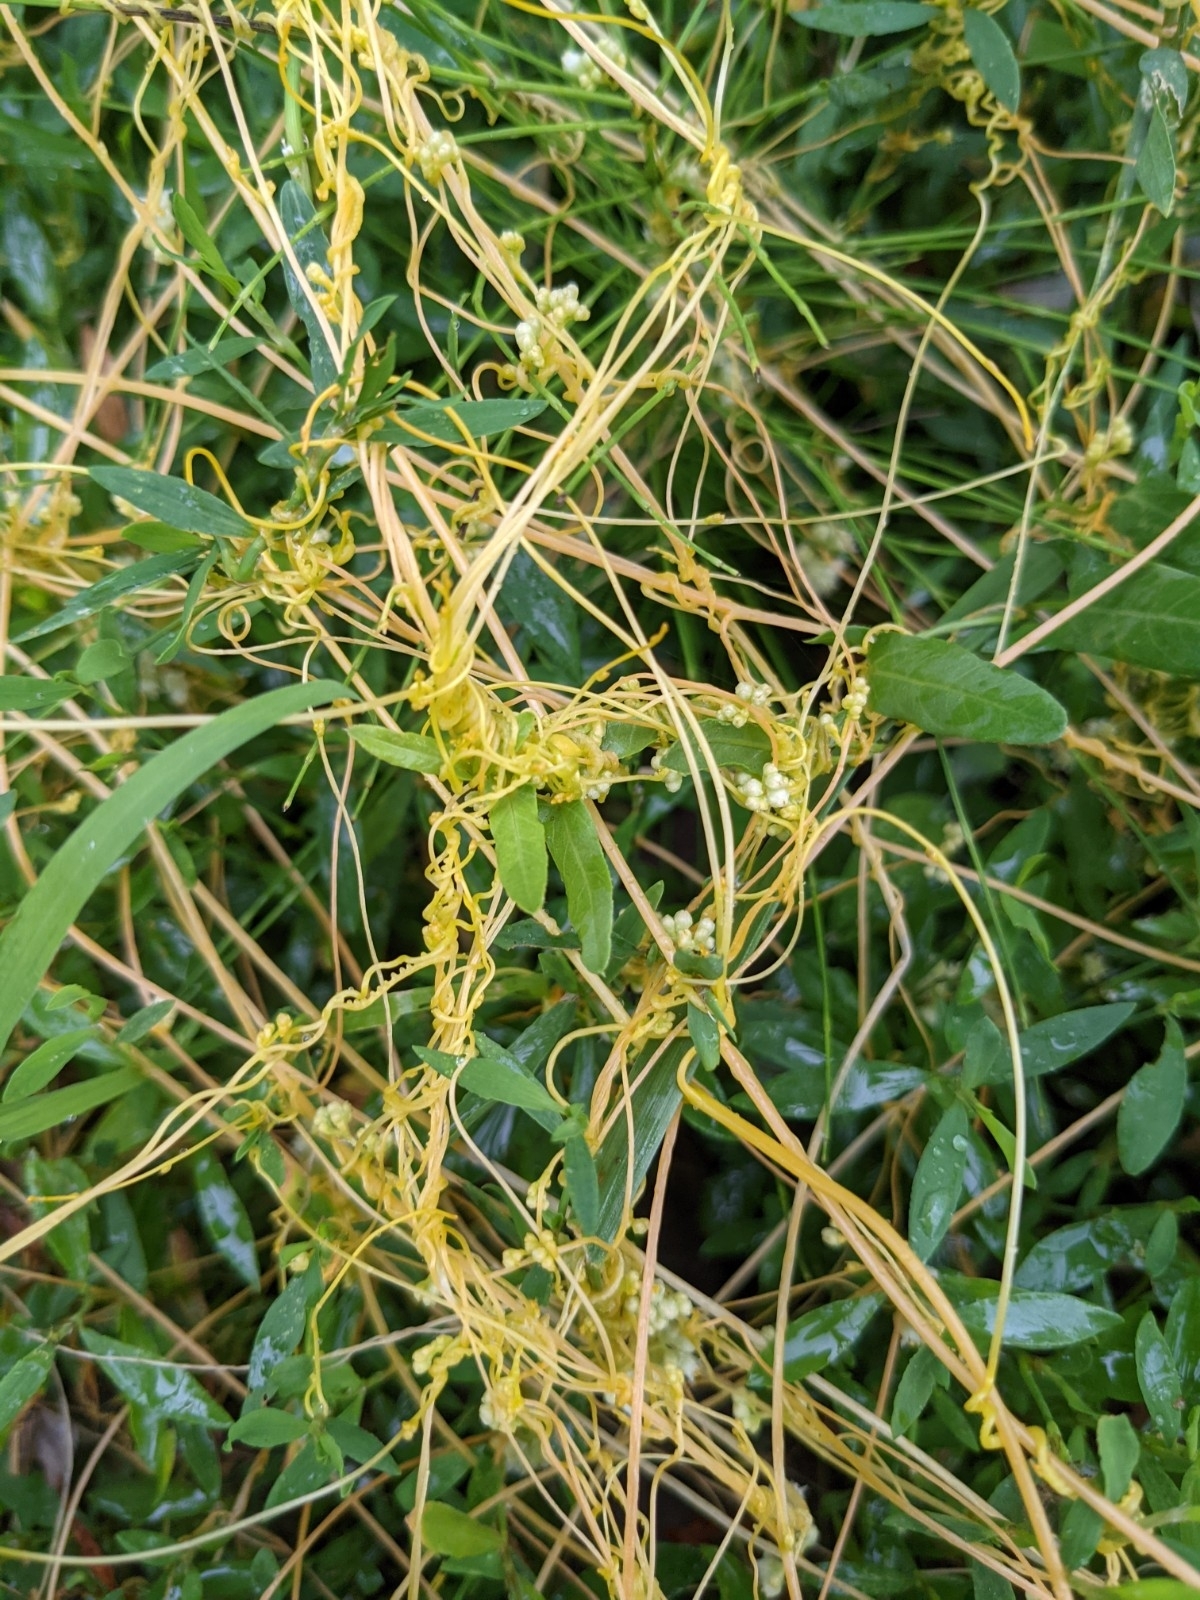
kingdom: Plantae
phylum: Tracheophyta
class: Magnoliopsida
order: Solanales
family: Convolvulaceae
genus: Cuscuta
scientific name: Cuscuta campestris
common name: Yellow dodder
